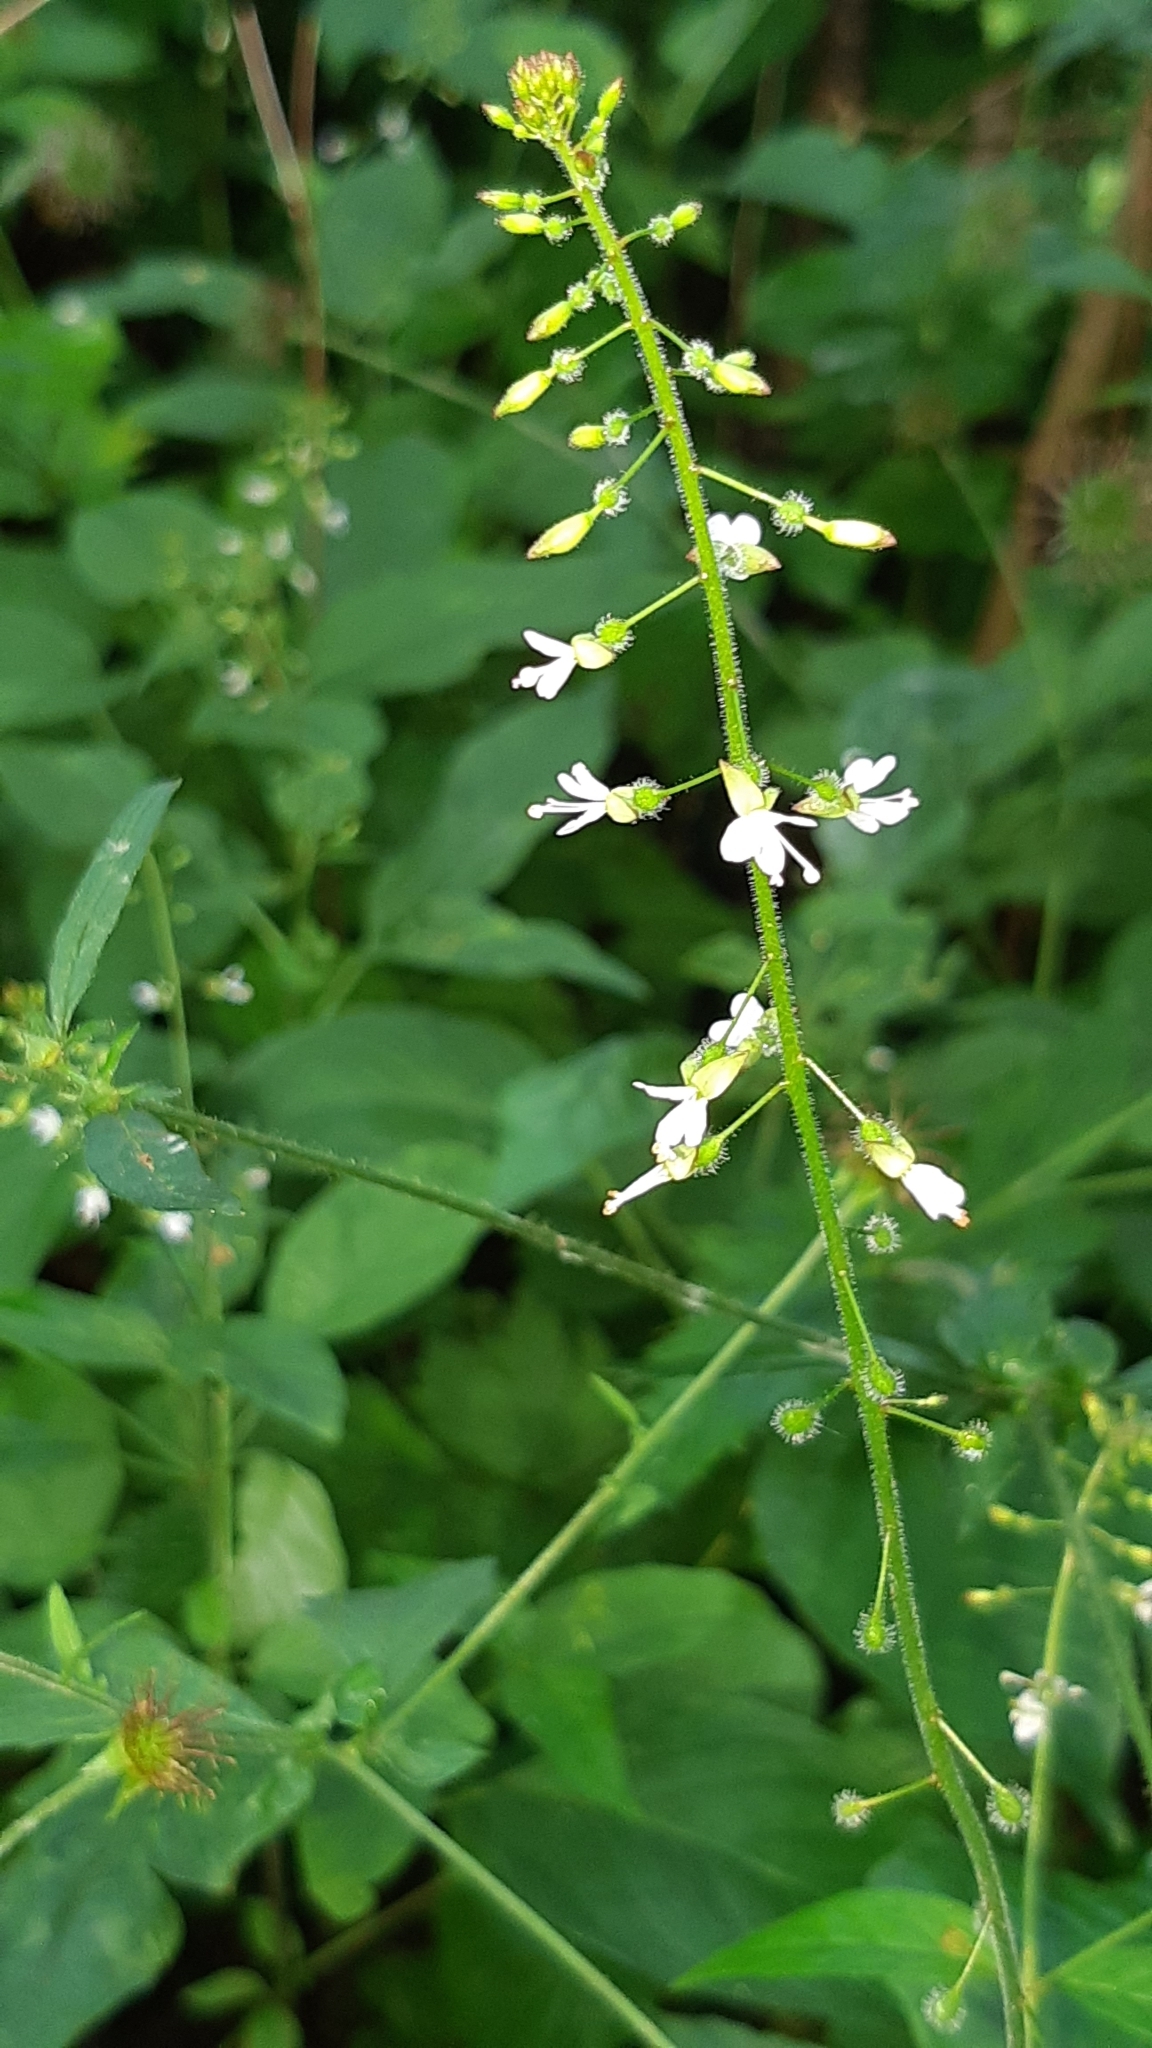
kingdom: Plantae
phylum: Tracheophyta
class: Magnoliopsida
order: Myrtales
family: Onagraceae
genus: Circaea
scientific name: Circaea lutetiana
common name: Enchanter's-nightshade
